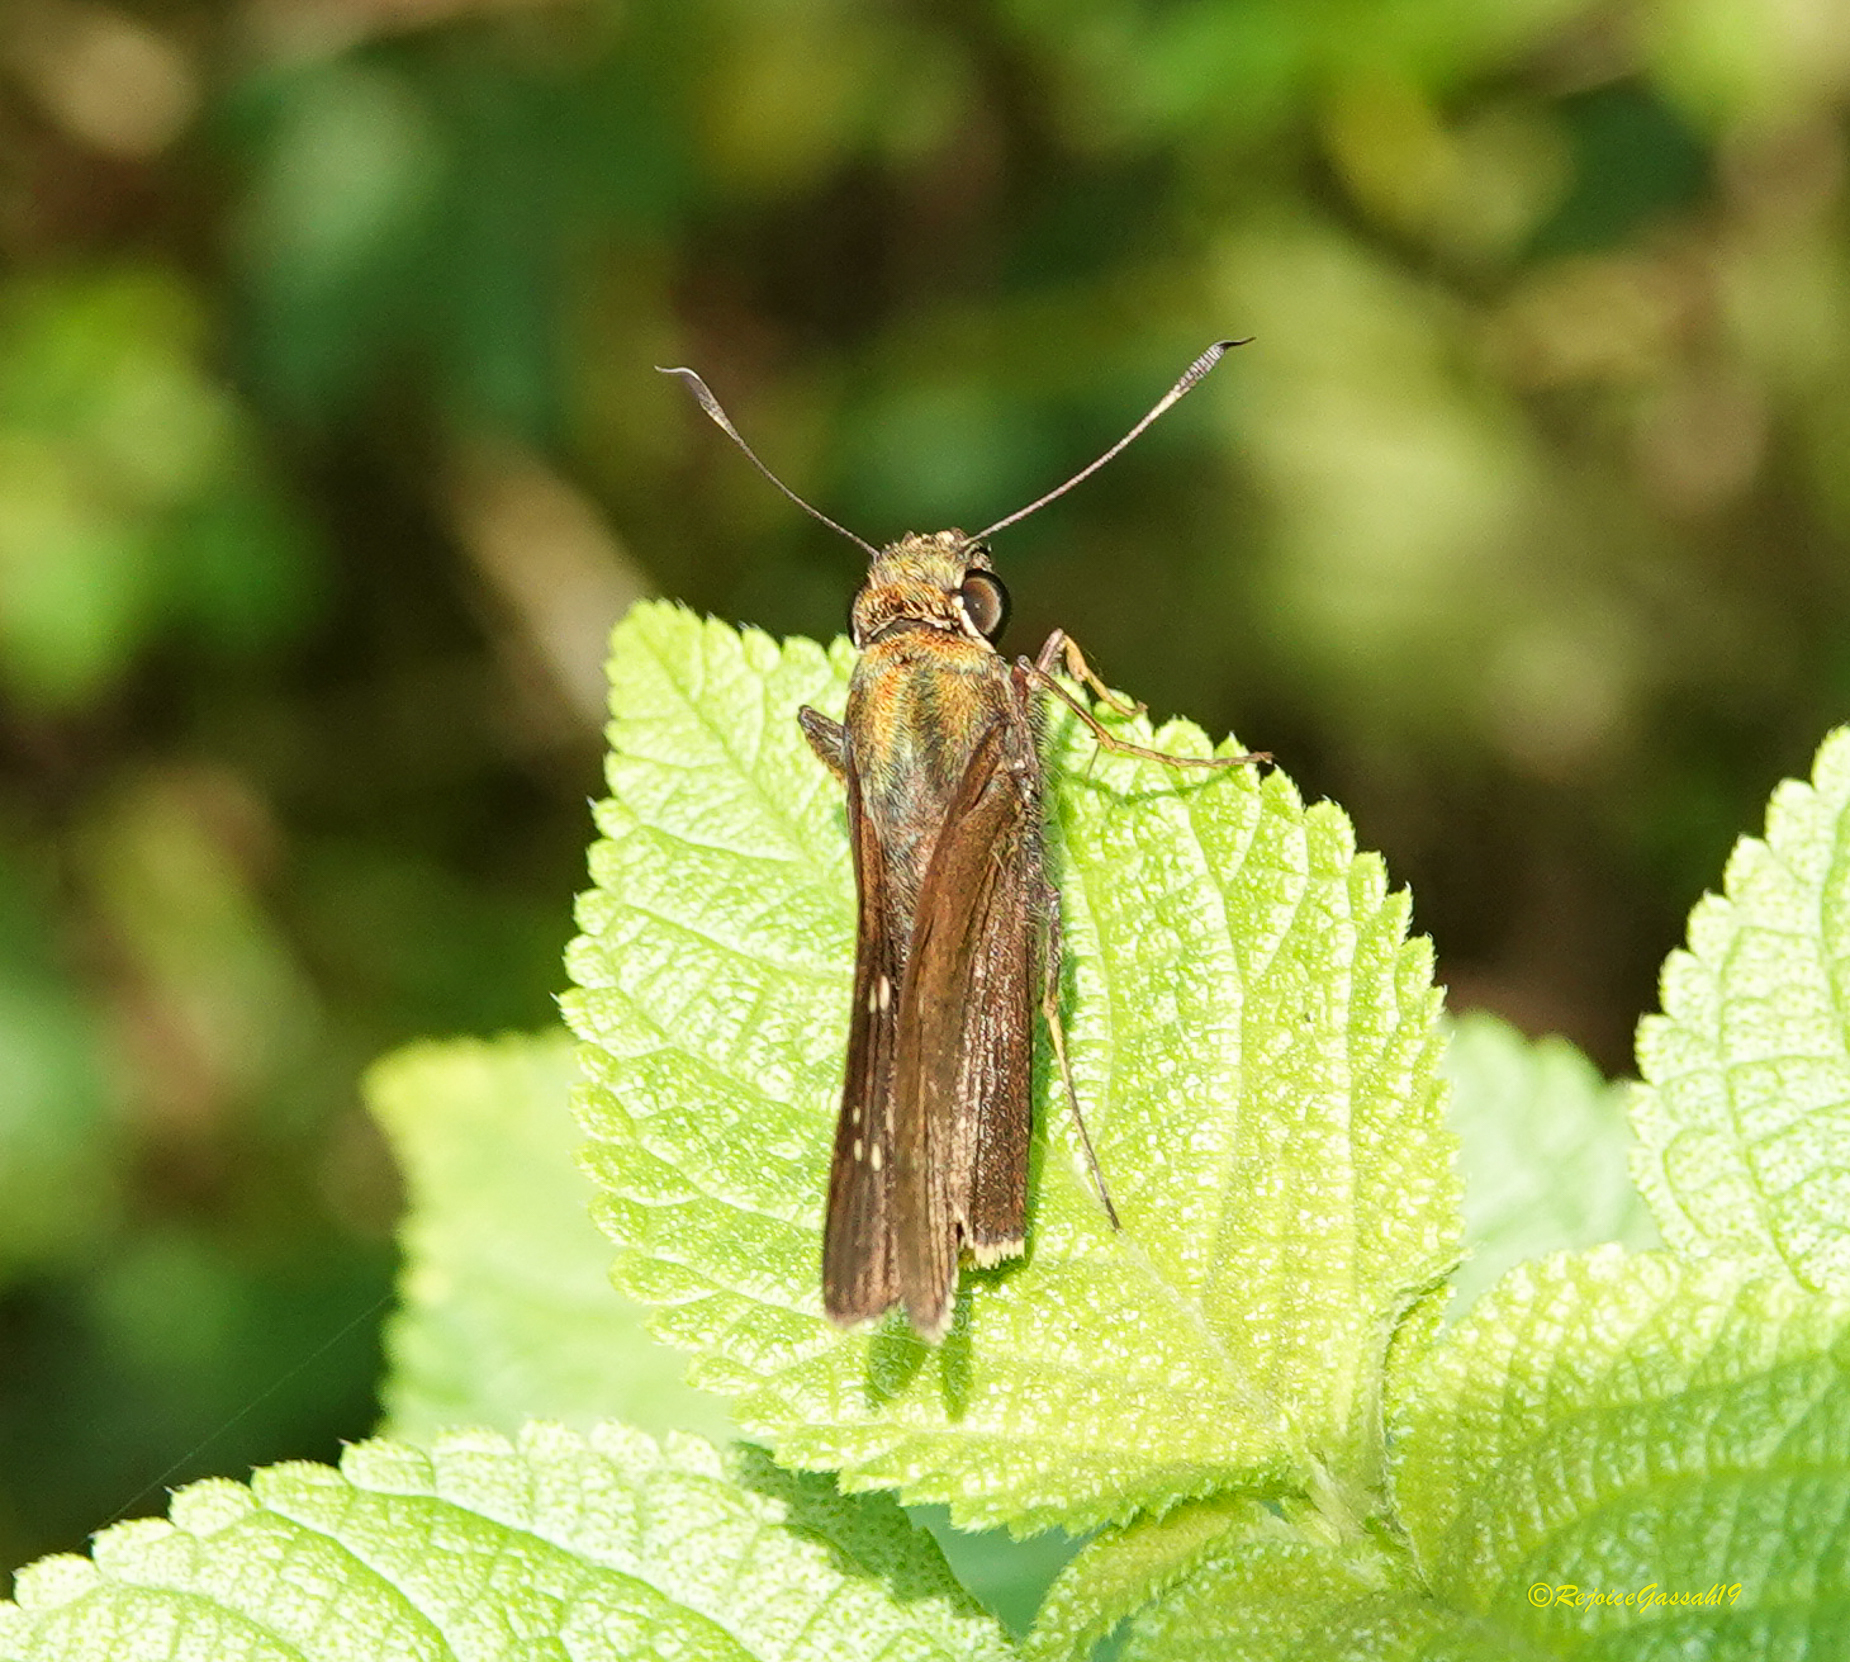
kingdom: Animalia
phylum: Arthropoda
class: Insecta
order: Lepidoptera
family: Hesperiidae
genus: Baoris
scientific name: Baoris farri
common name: Paintbrush swift
